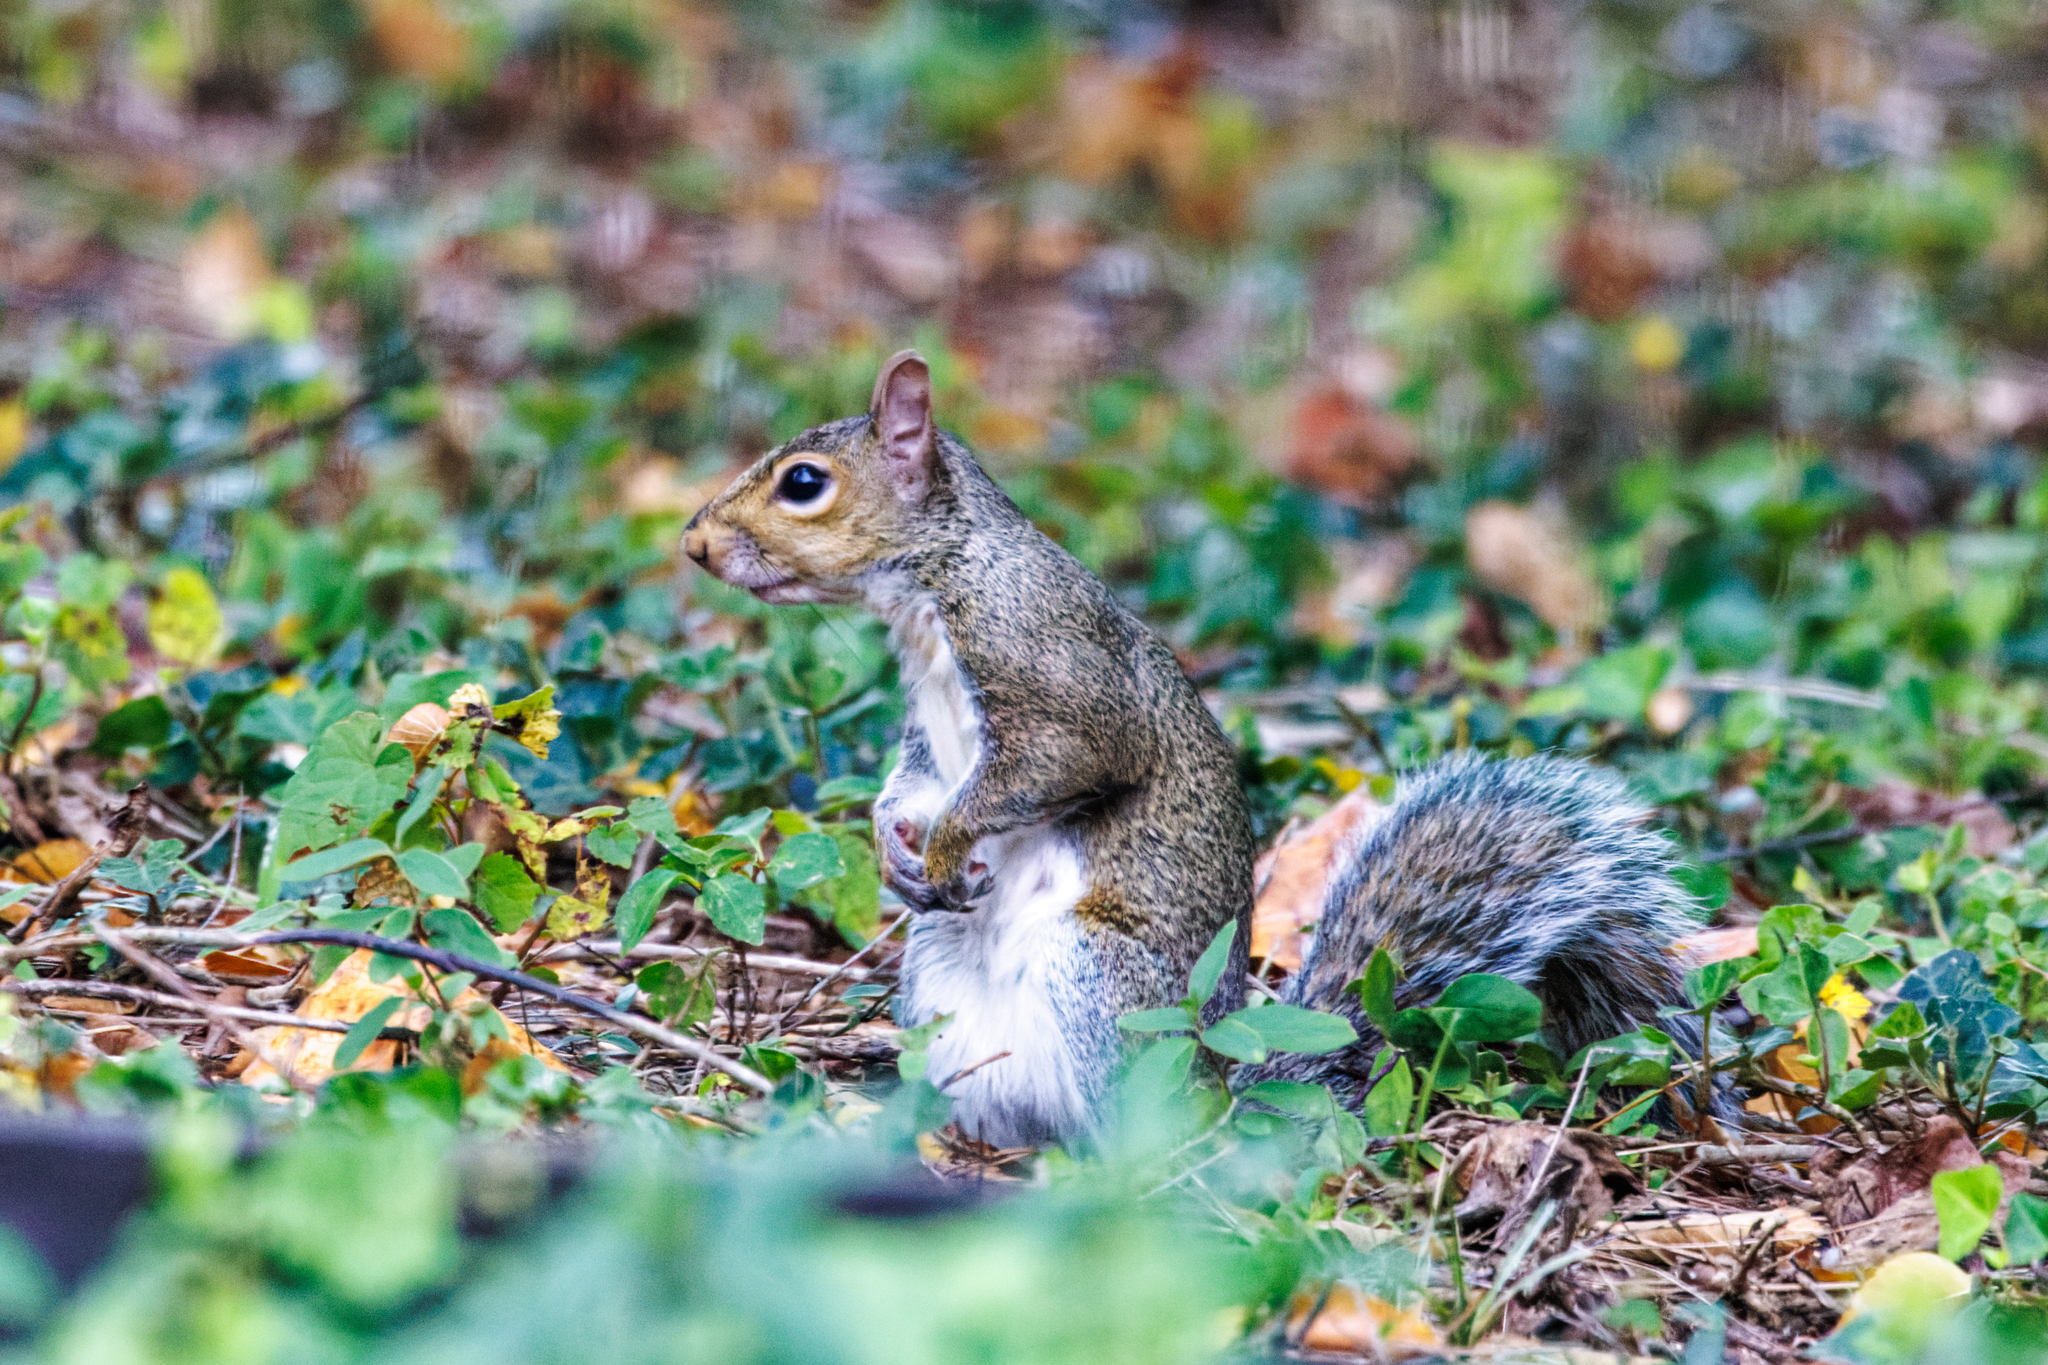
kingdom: Animalia
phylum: Chordata
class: Mammalia
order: Rodentia
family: Sciuridae
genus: Sciurus
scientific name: Sciurus carolinensis
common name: Eastern gray squirrel
